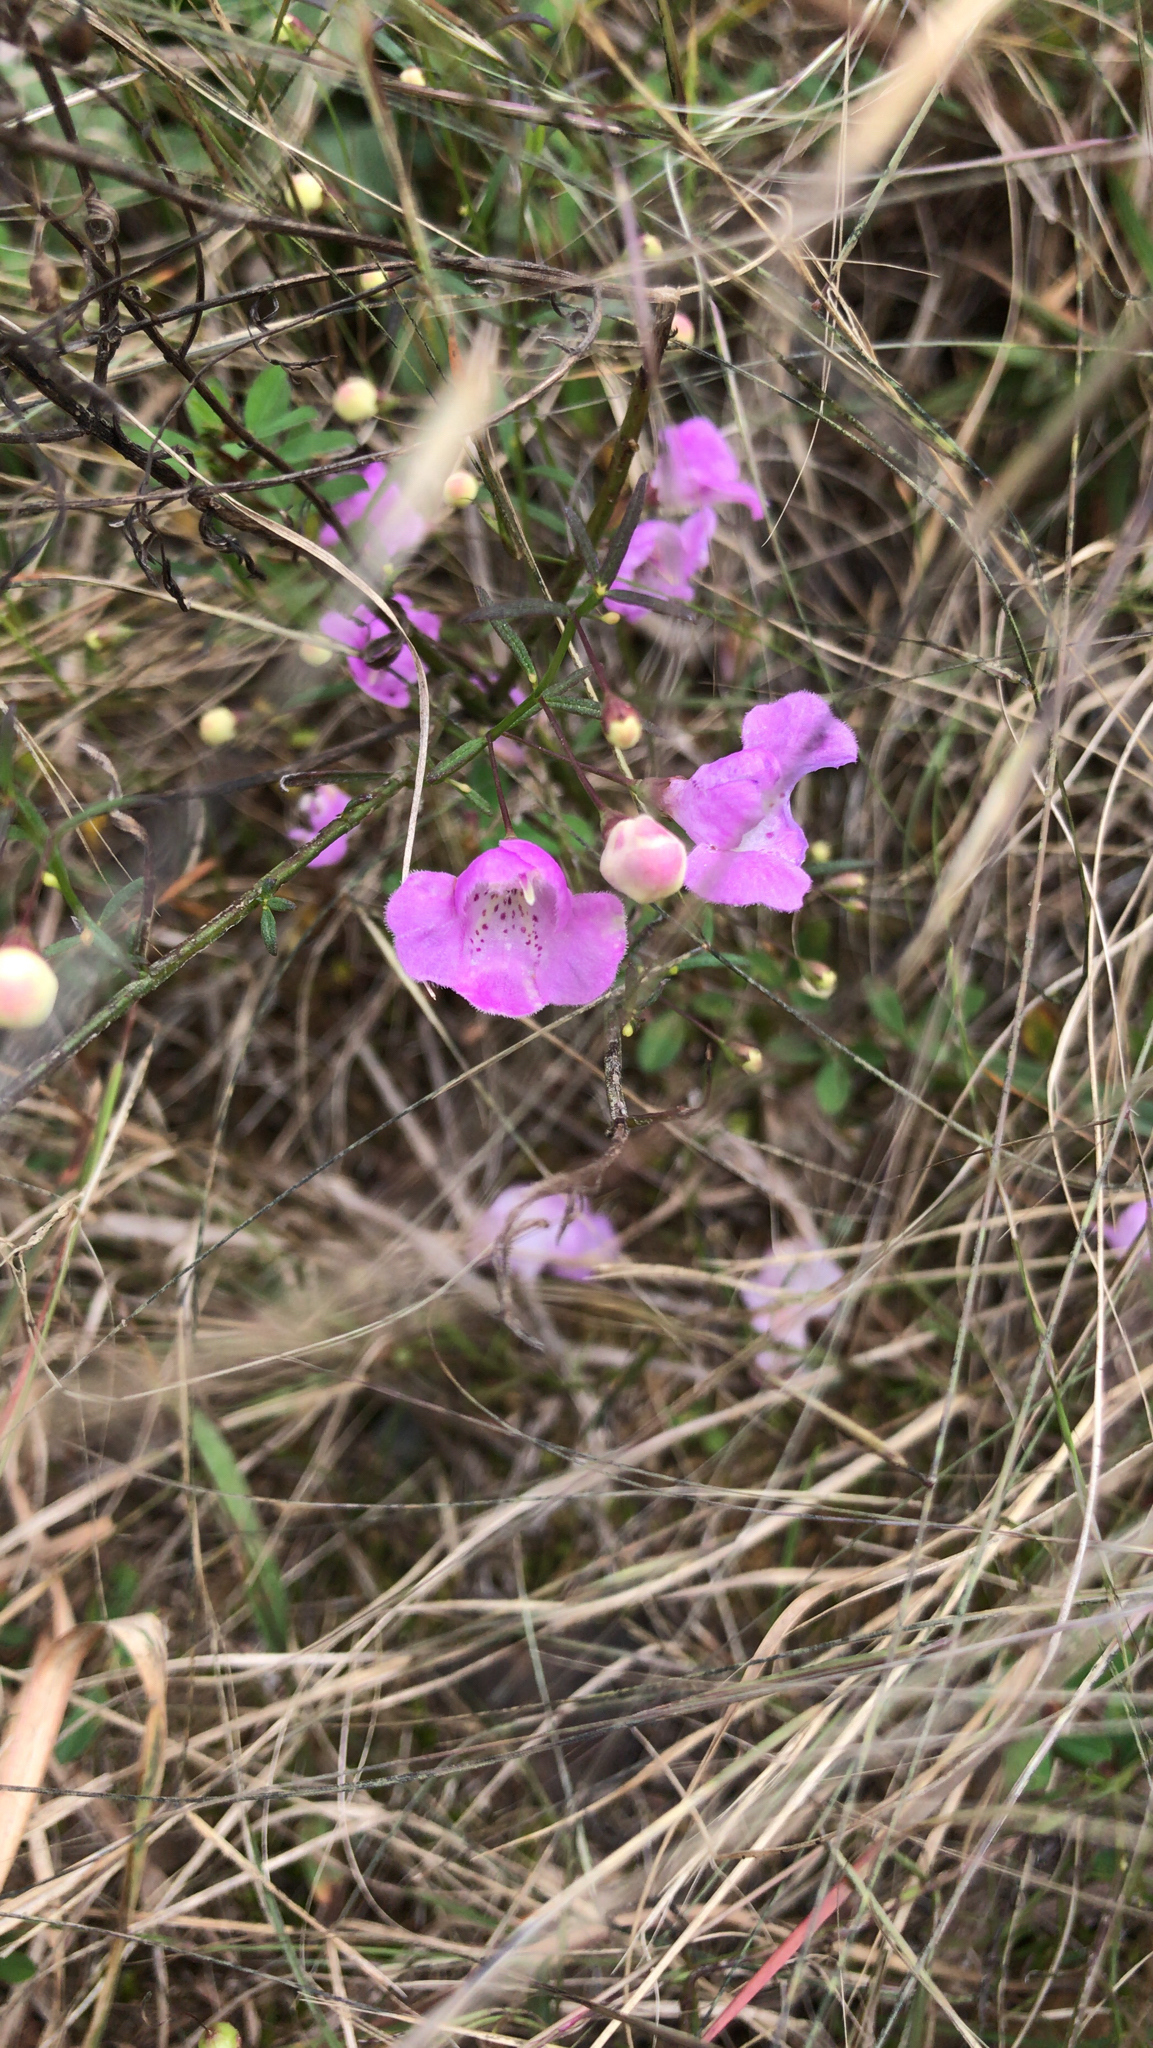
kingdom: Plantae
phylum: Tracheophyta
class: Magnoliopsida
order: Lamiales
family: Orobanchaceae
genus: Agalinis
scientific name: Agalinis tenuifolia
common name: Slender agalinis
